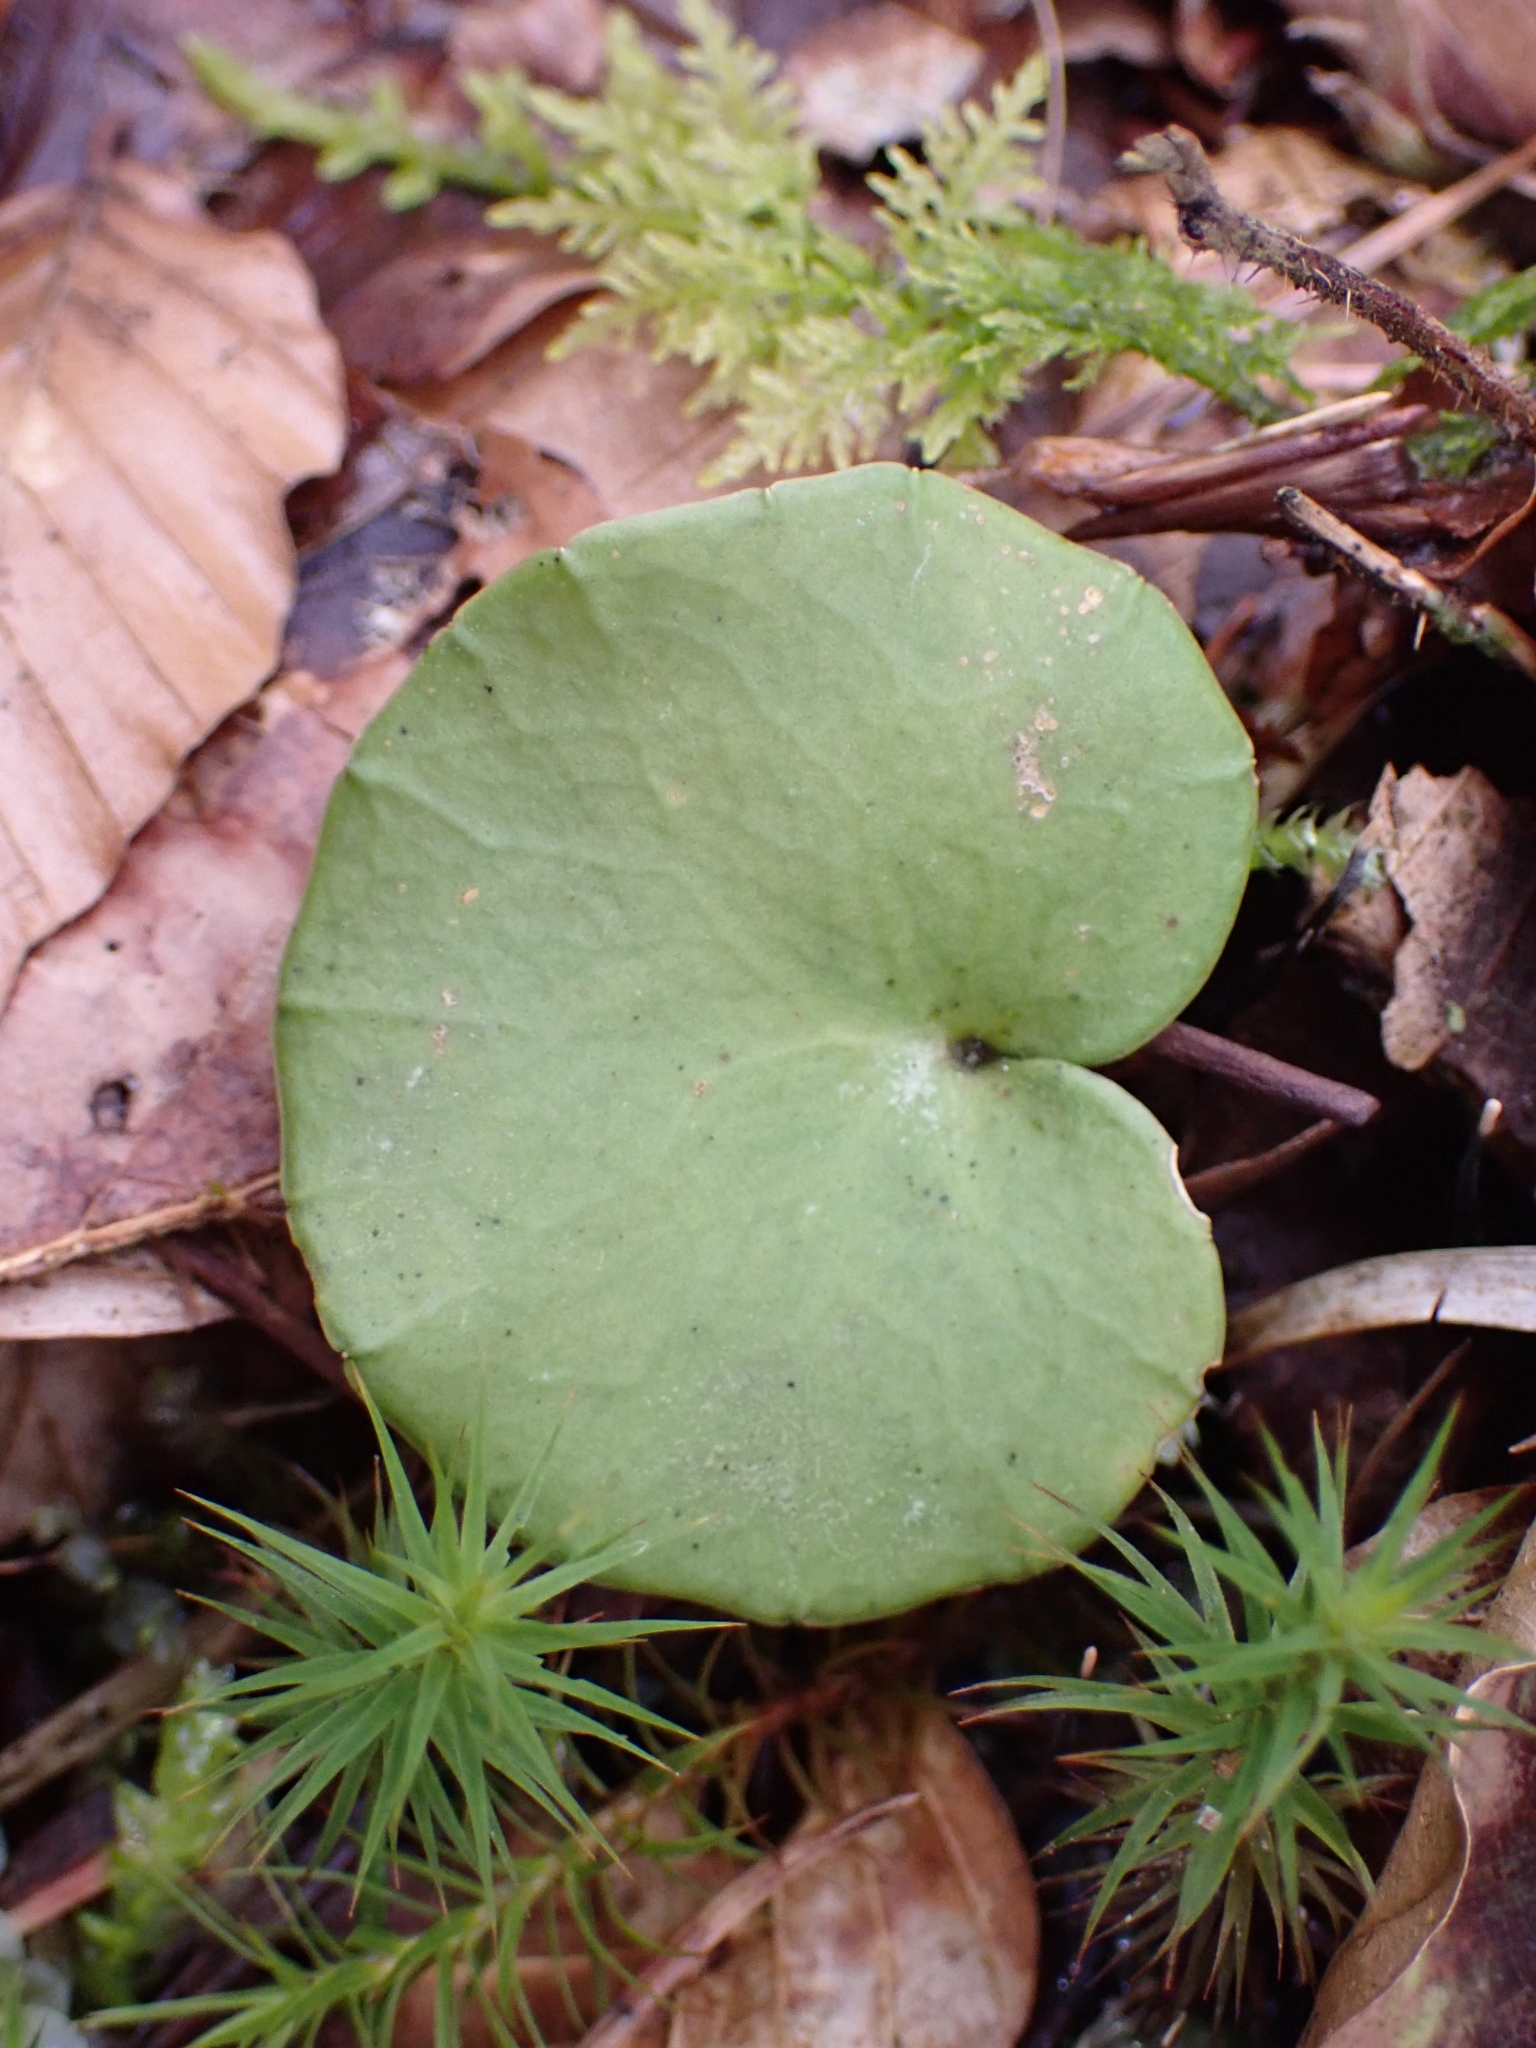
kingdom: Plantae
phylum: Tracheophyta
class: Magnoliopsida
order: Ericales
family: Primulaceae
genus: Soldanella
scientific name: Soldanella montana
